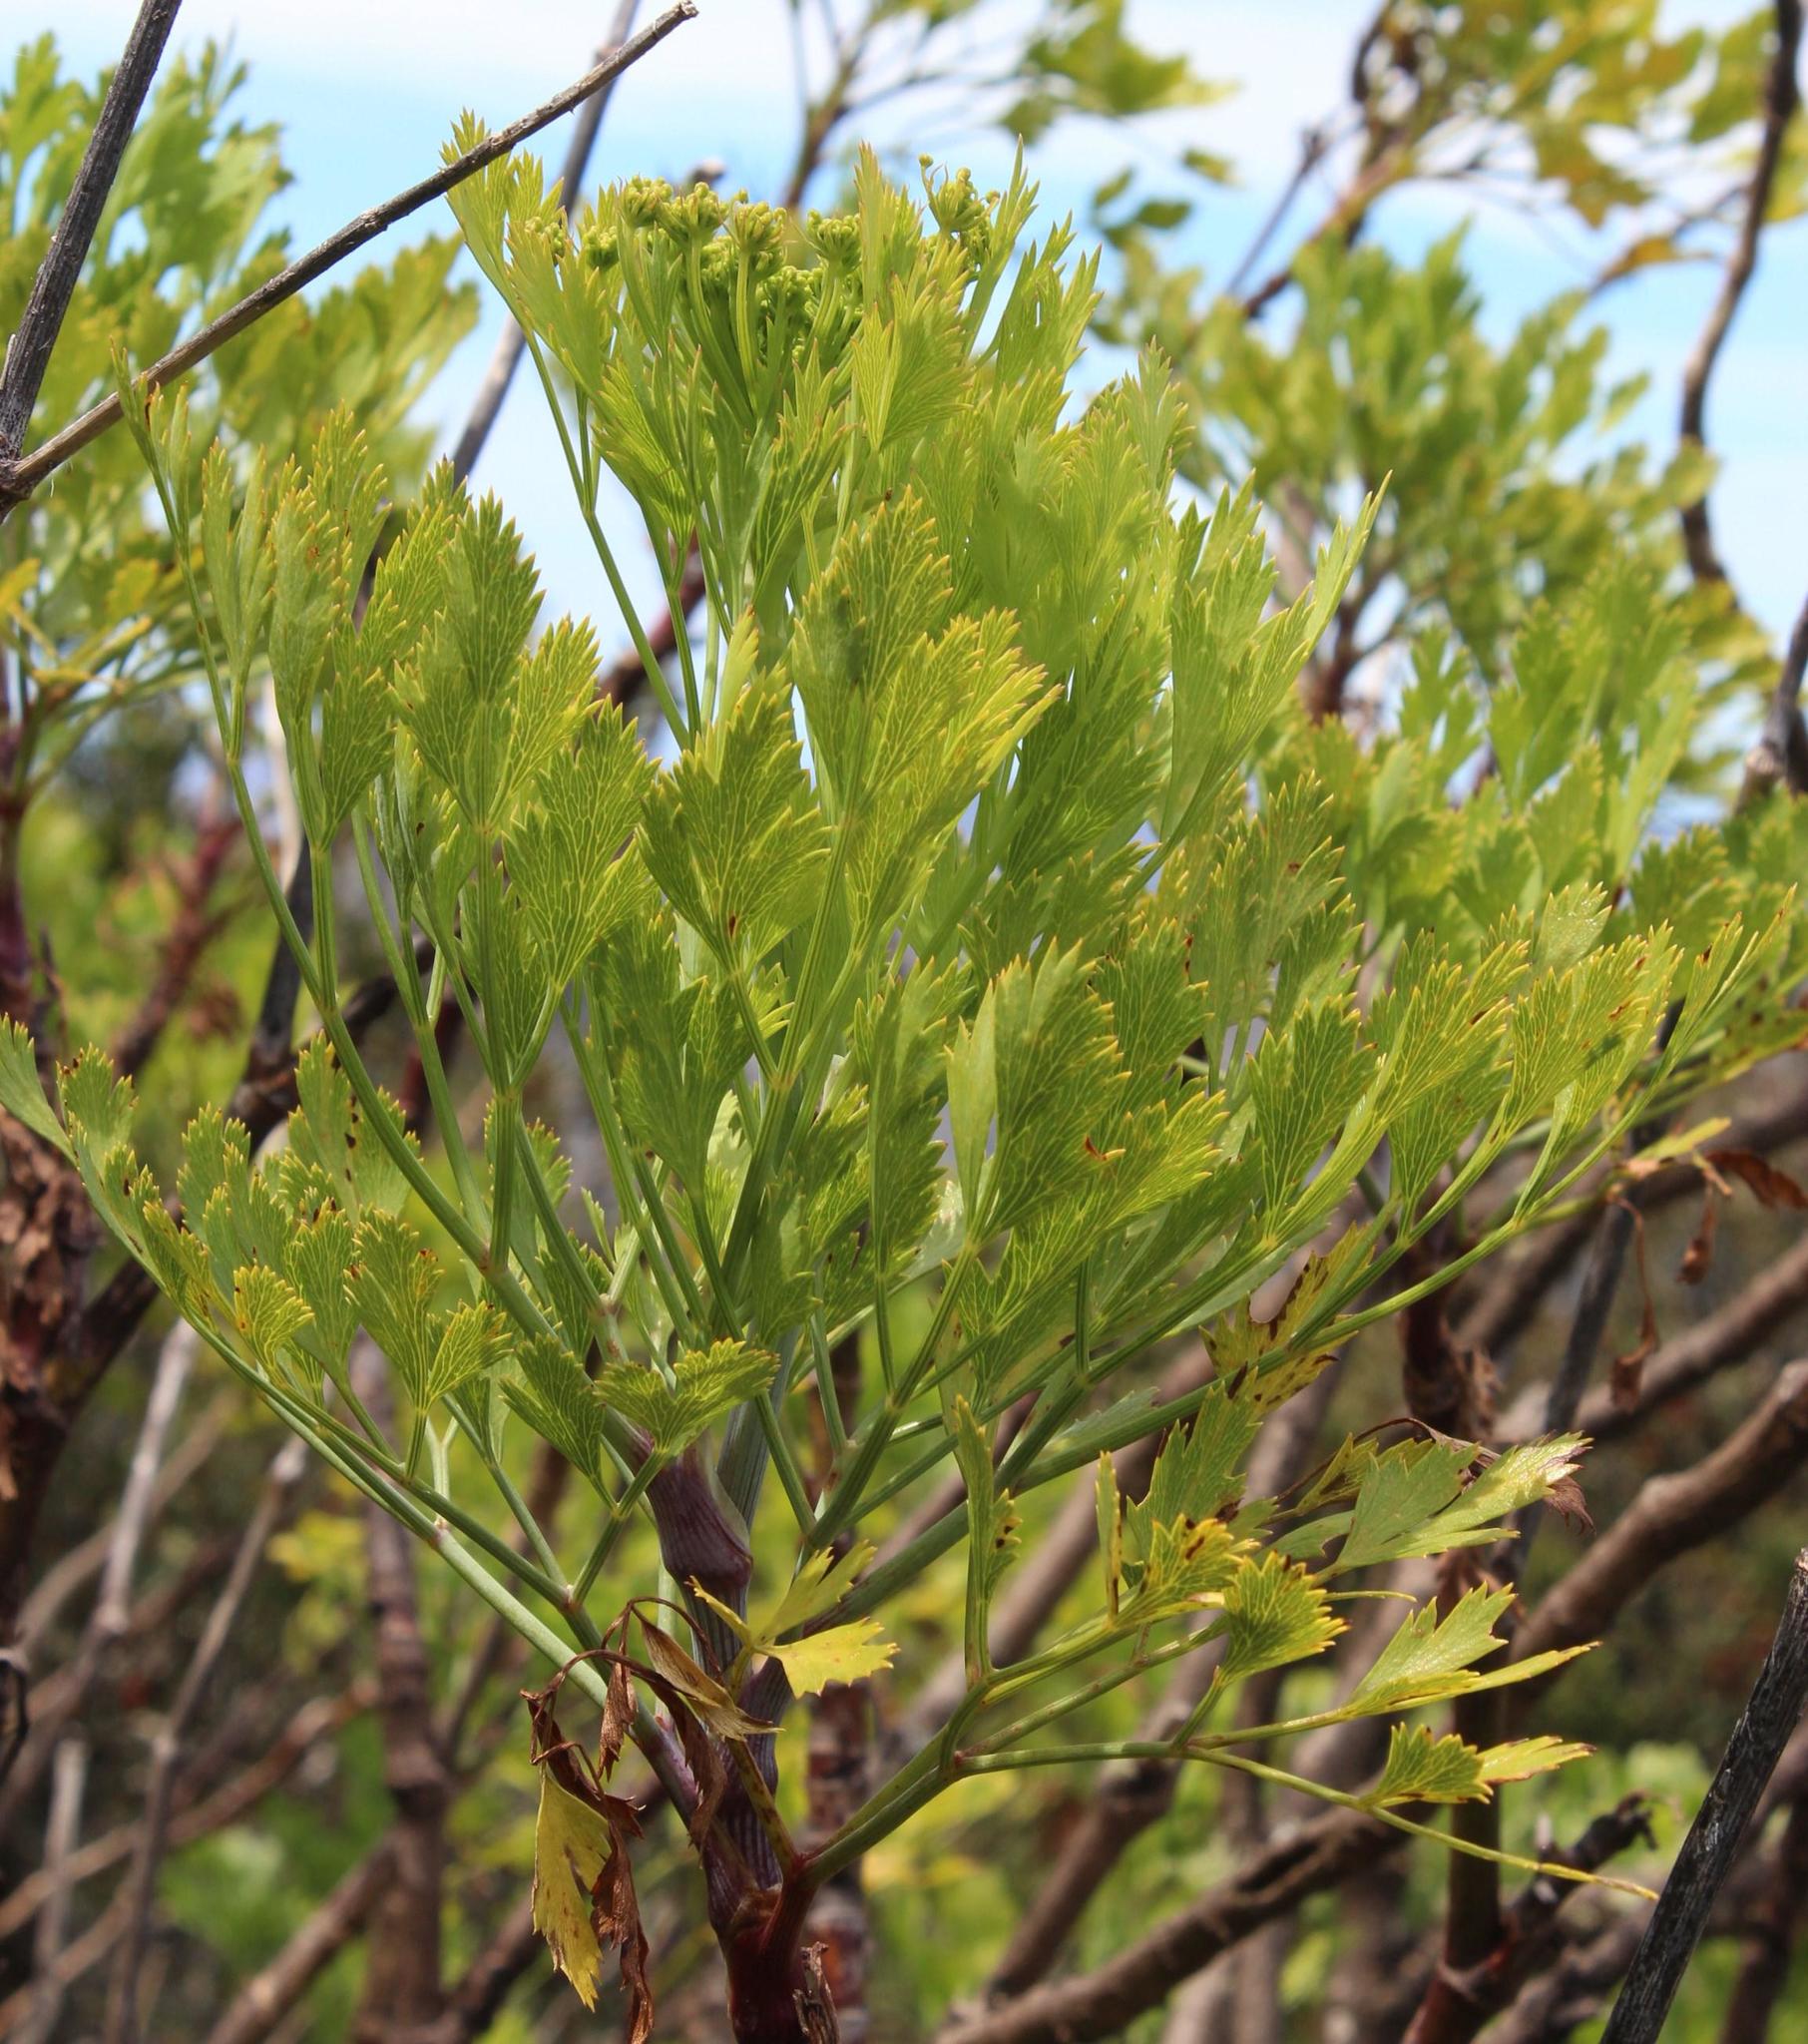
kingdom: Plantae
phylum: Tracheophyta
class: Magnoliopsida
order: Apiales
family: Apiaceae
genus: Notobubon
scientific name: Notobubon galbanum
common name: Blisterbush
